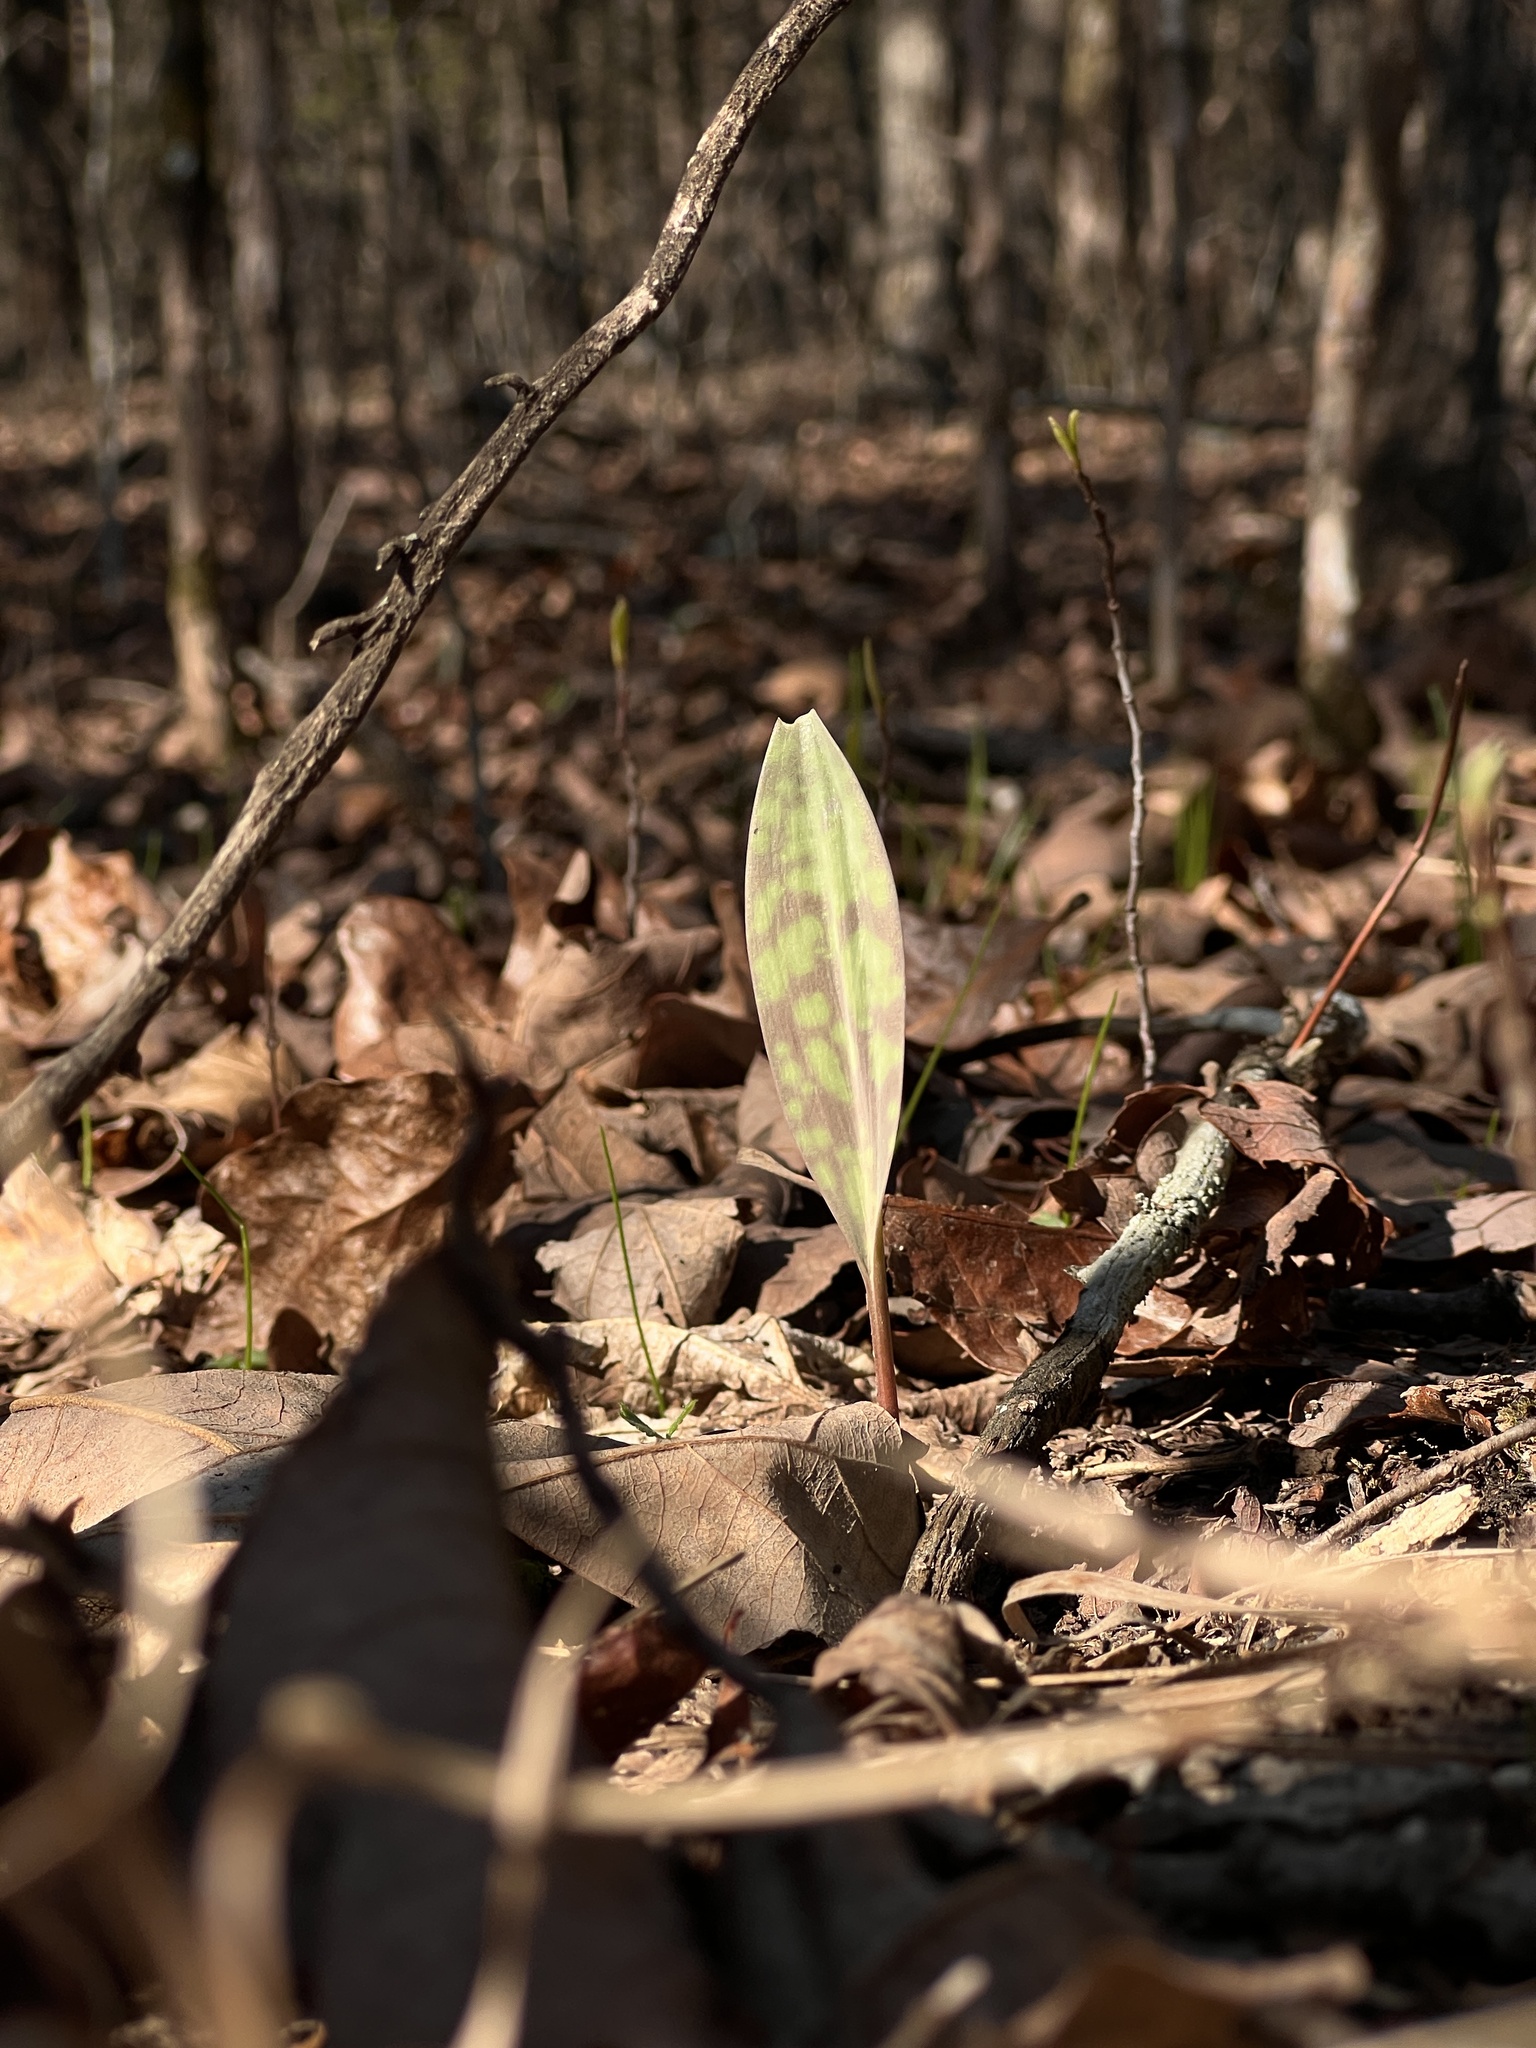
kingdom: Plantae
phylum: Tracheophyta
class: Liliopsida
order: Liliales
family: Liliaceae
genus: Erythronium
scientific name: Erythronium albidum
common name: White trout-lily
